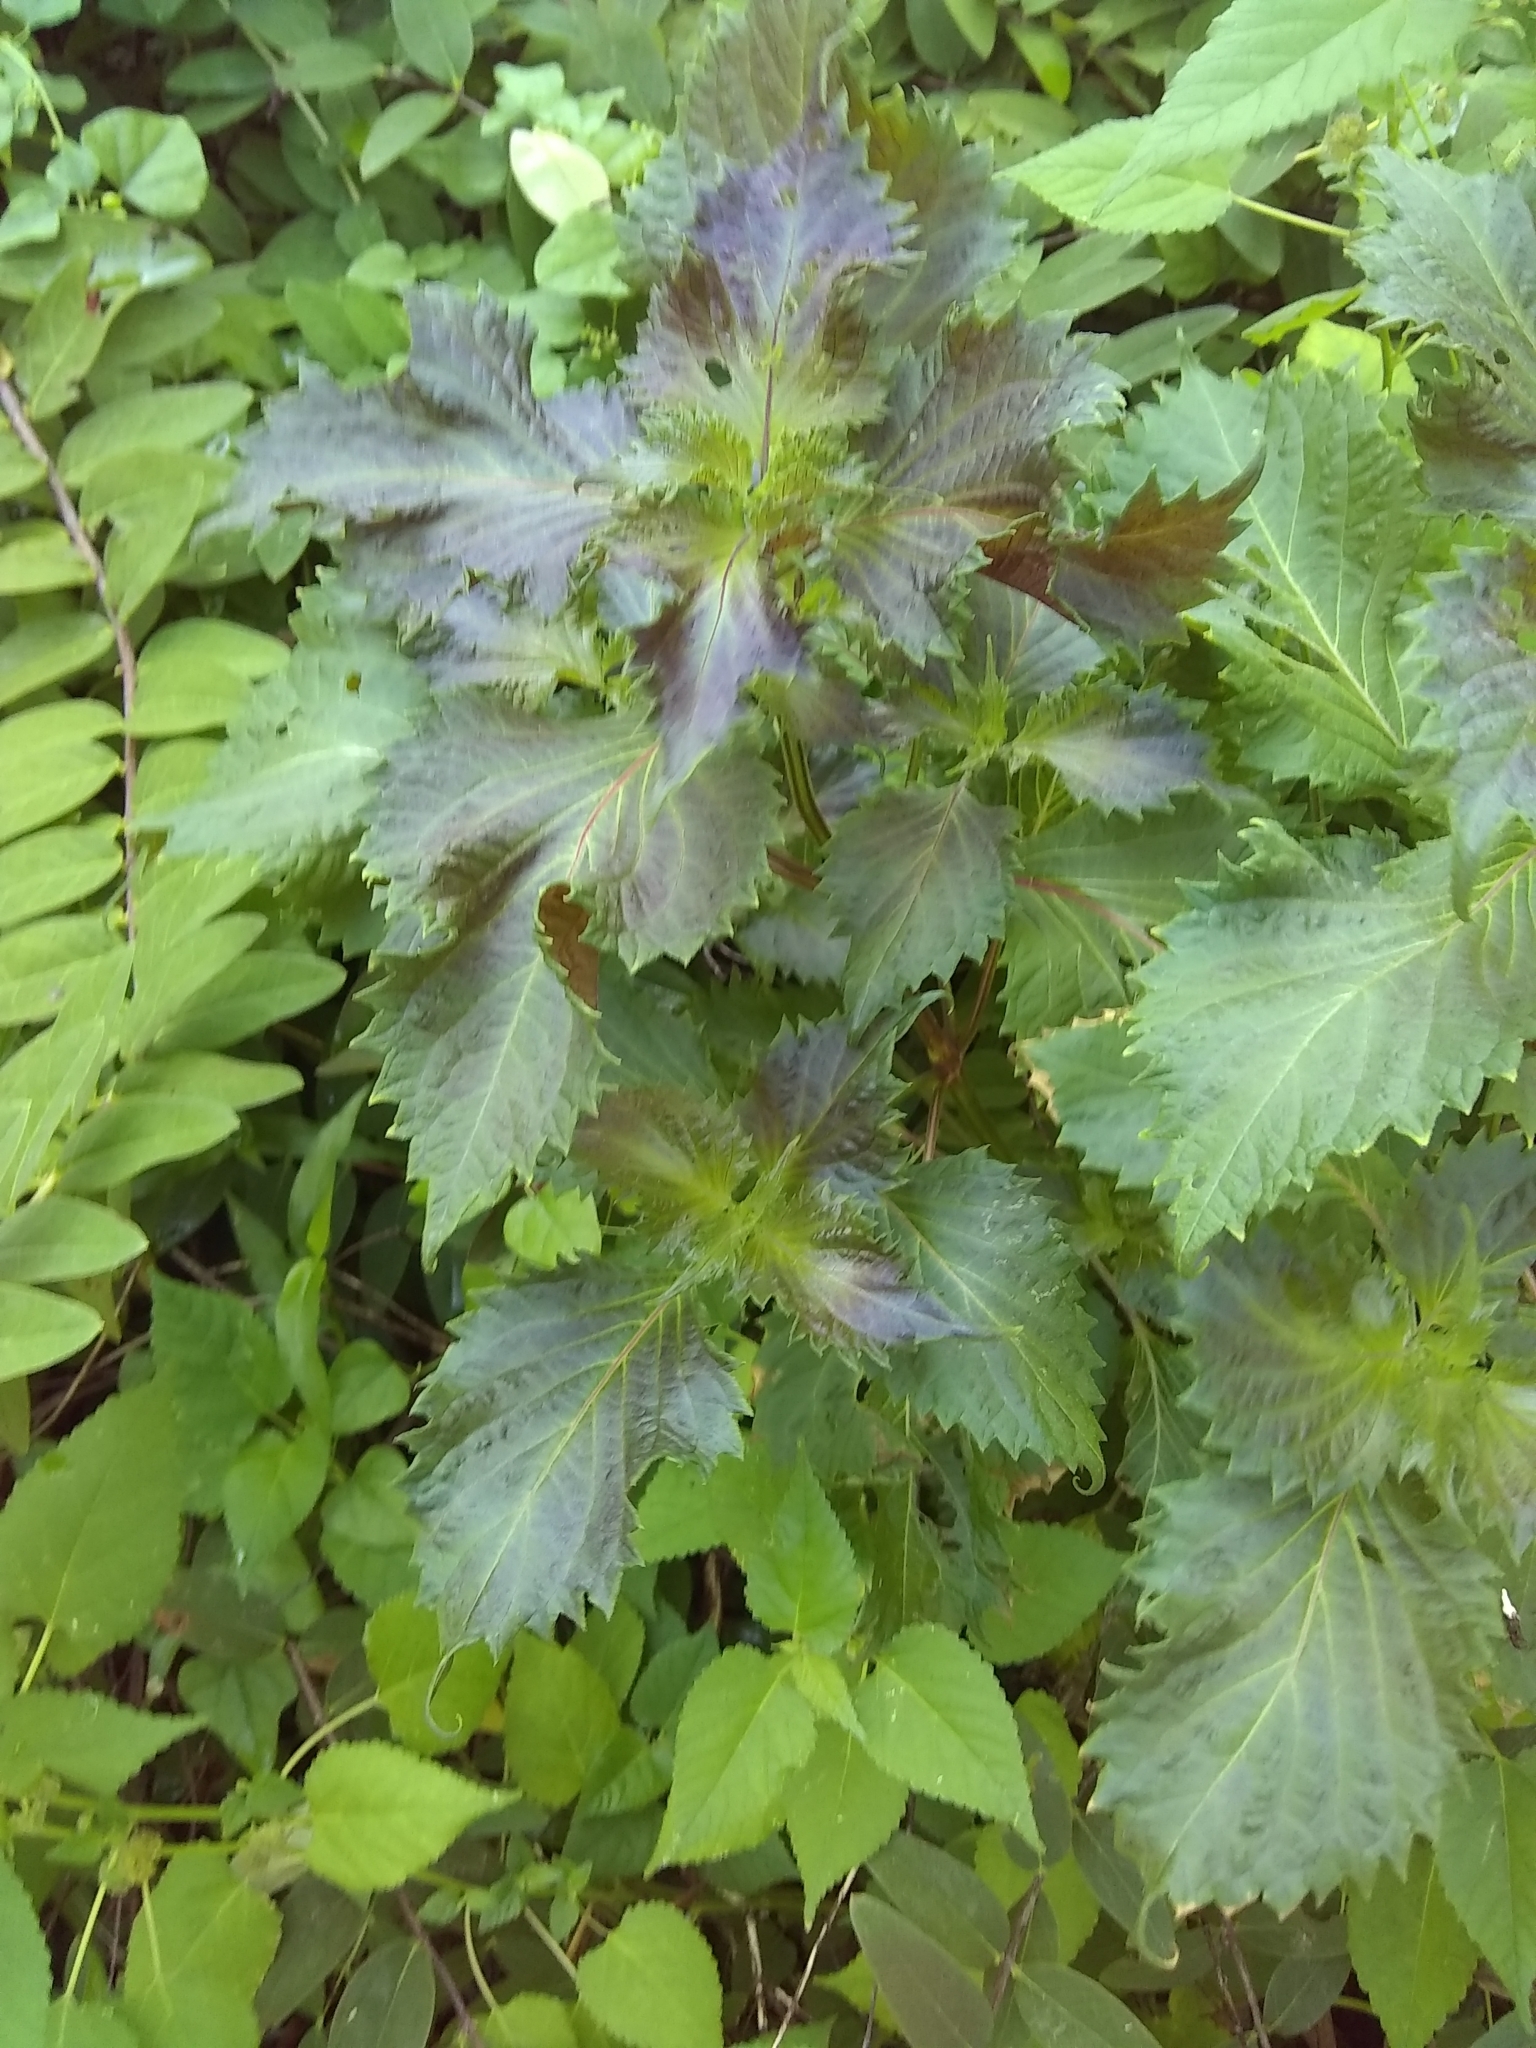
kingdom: Plantae
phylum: Tracheophyta
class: Magnoliopsida
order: Lamiales
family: Lamiaceae
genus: Perilla
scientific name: Perilla frutescens
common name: Perilla
